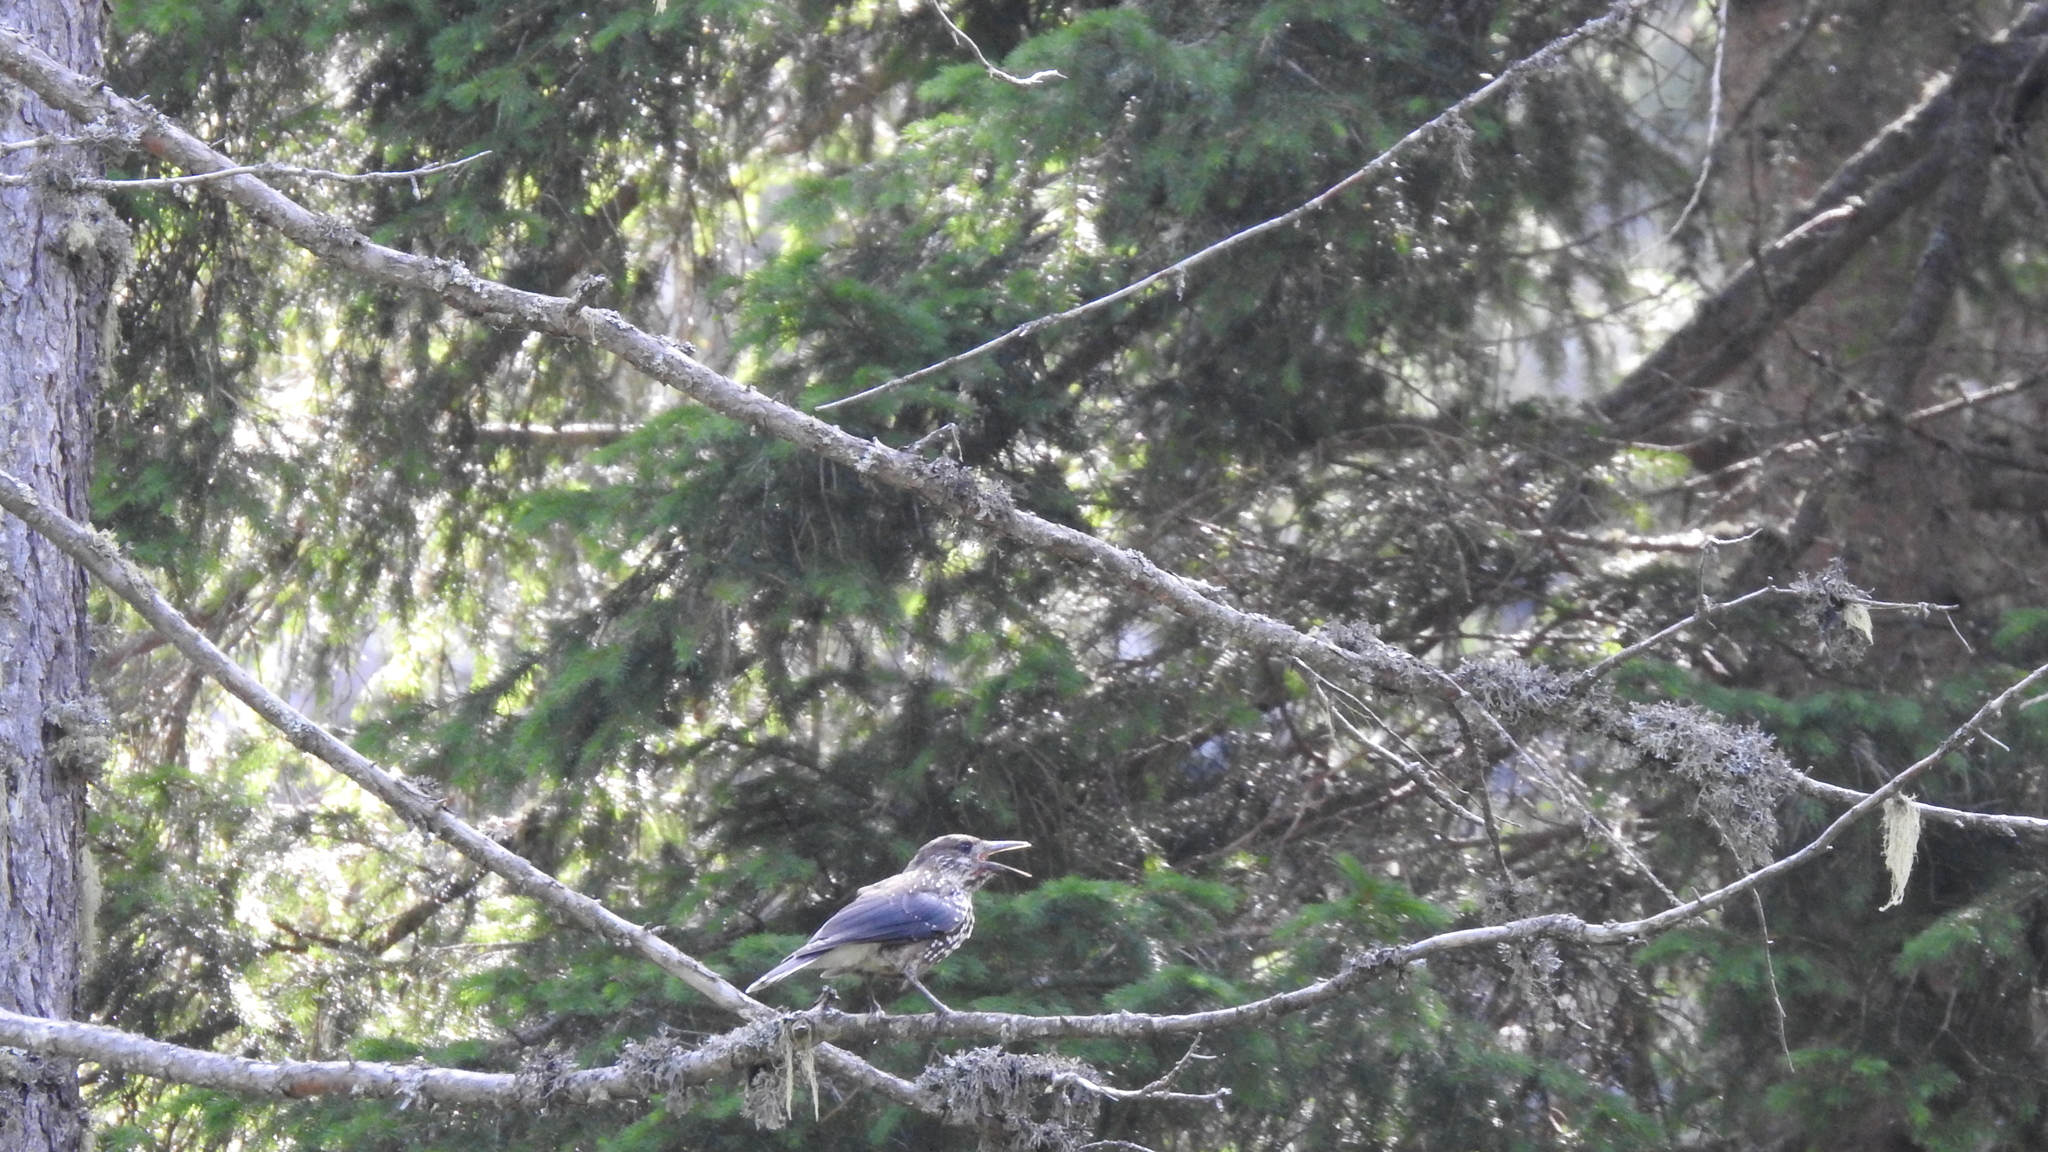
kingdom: Animalia
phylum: Chordata
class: Aves
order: Passeriformes
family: Corvidae
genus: Nucifraga
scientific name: Nucifraga caryocatactes
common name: Spotted nutcracker
